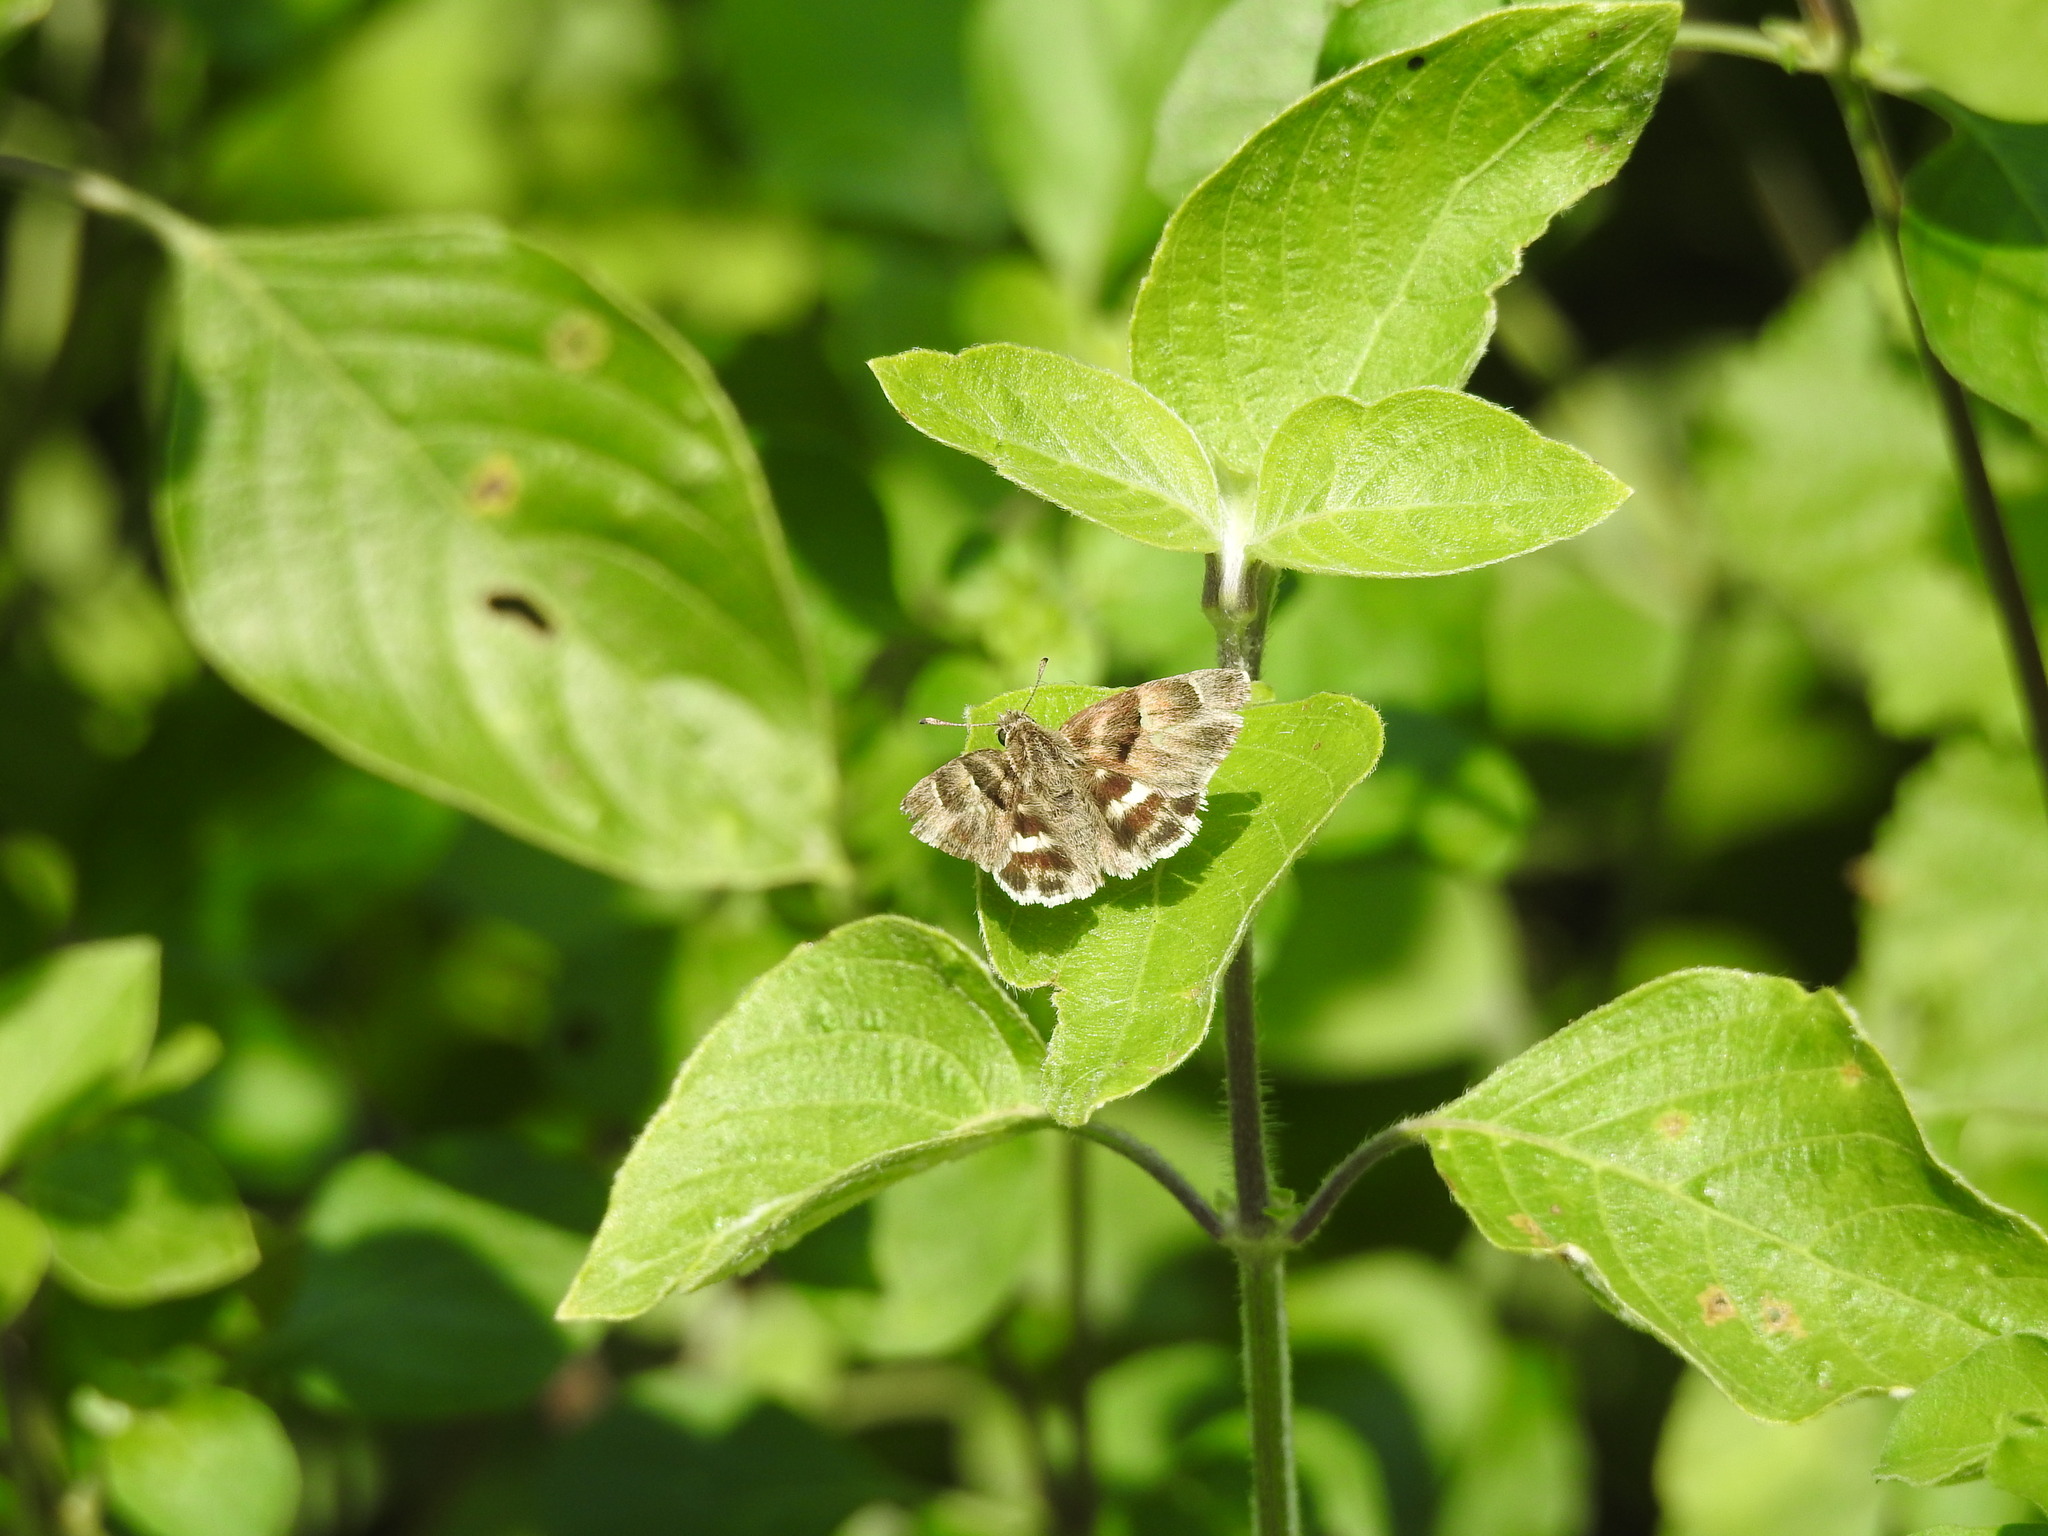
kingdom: Animalia
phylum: Arthropoda
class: Insecta
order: Lepidoptera
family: Hesperiidae
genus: Gomalia
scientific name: Gomalia elma
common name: Green-marbled skipper
